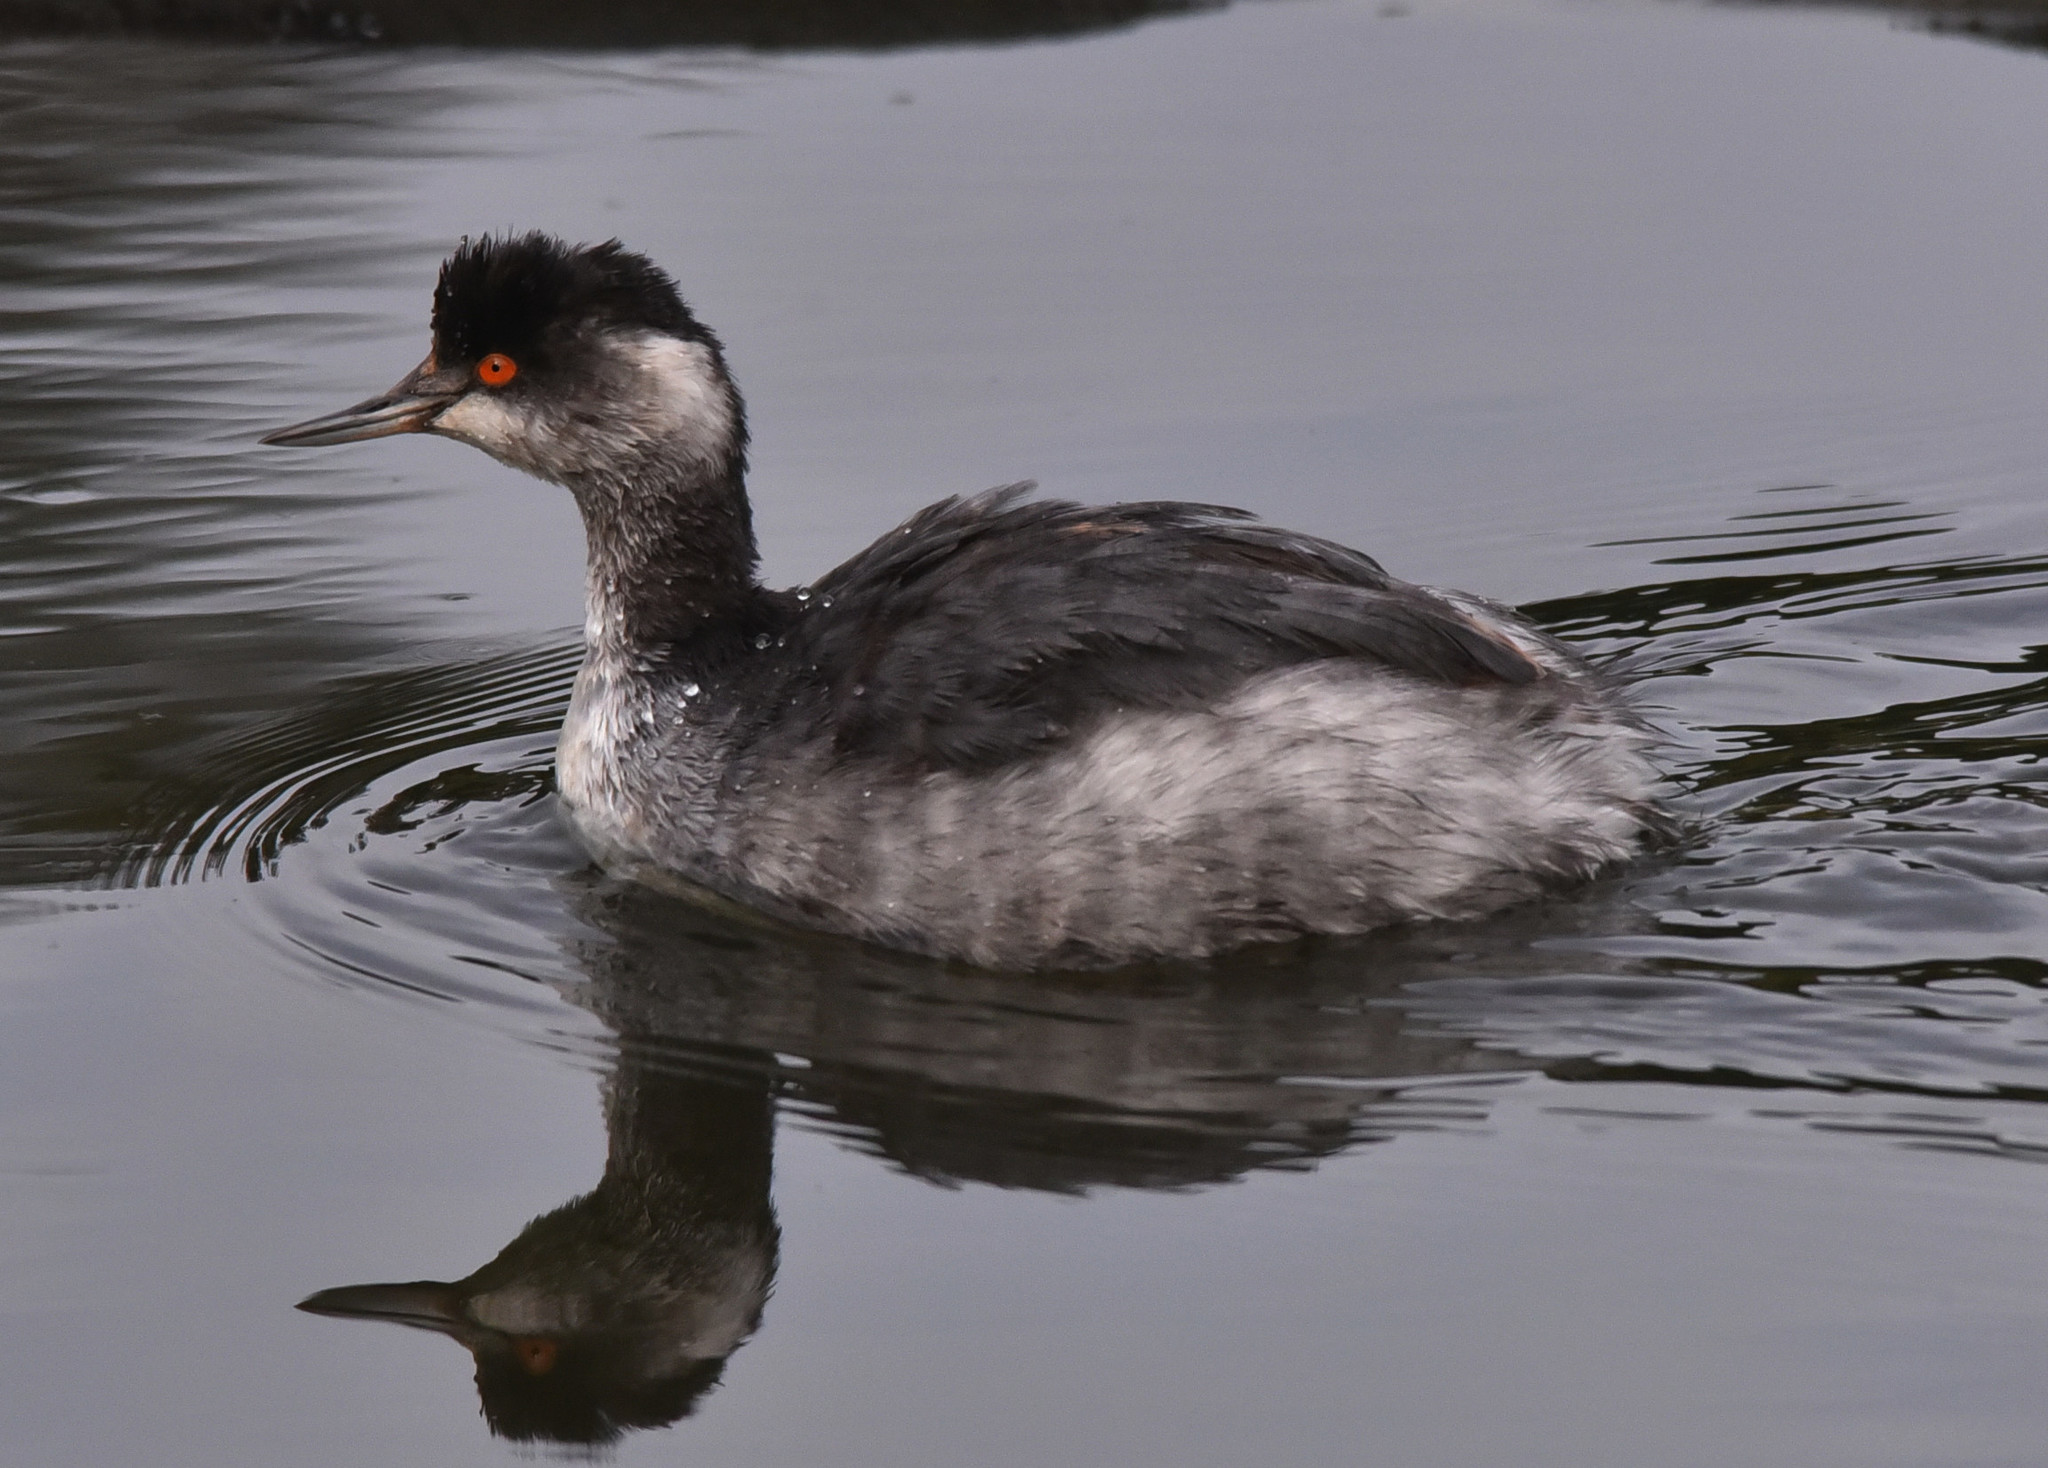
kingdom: Animalia
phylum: Chordata
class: Aves
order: Podicipediformes
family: Podicipedidae
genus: Podiceps
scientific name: Podiceps nigricollis
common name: Black-necked grebe
